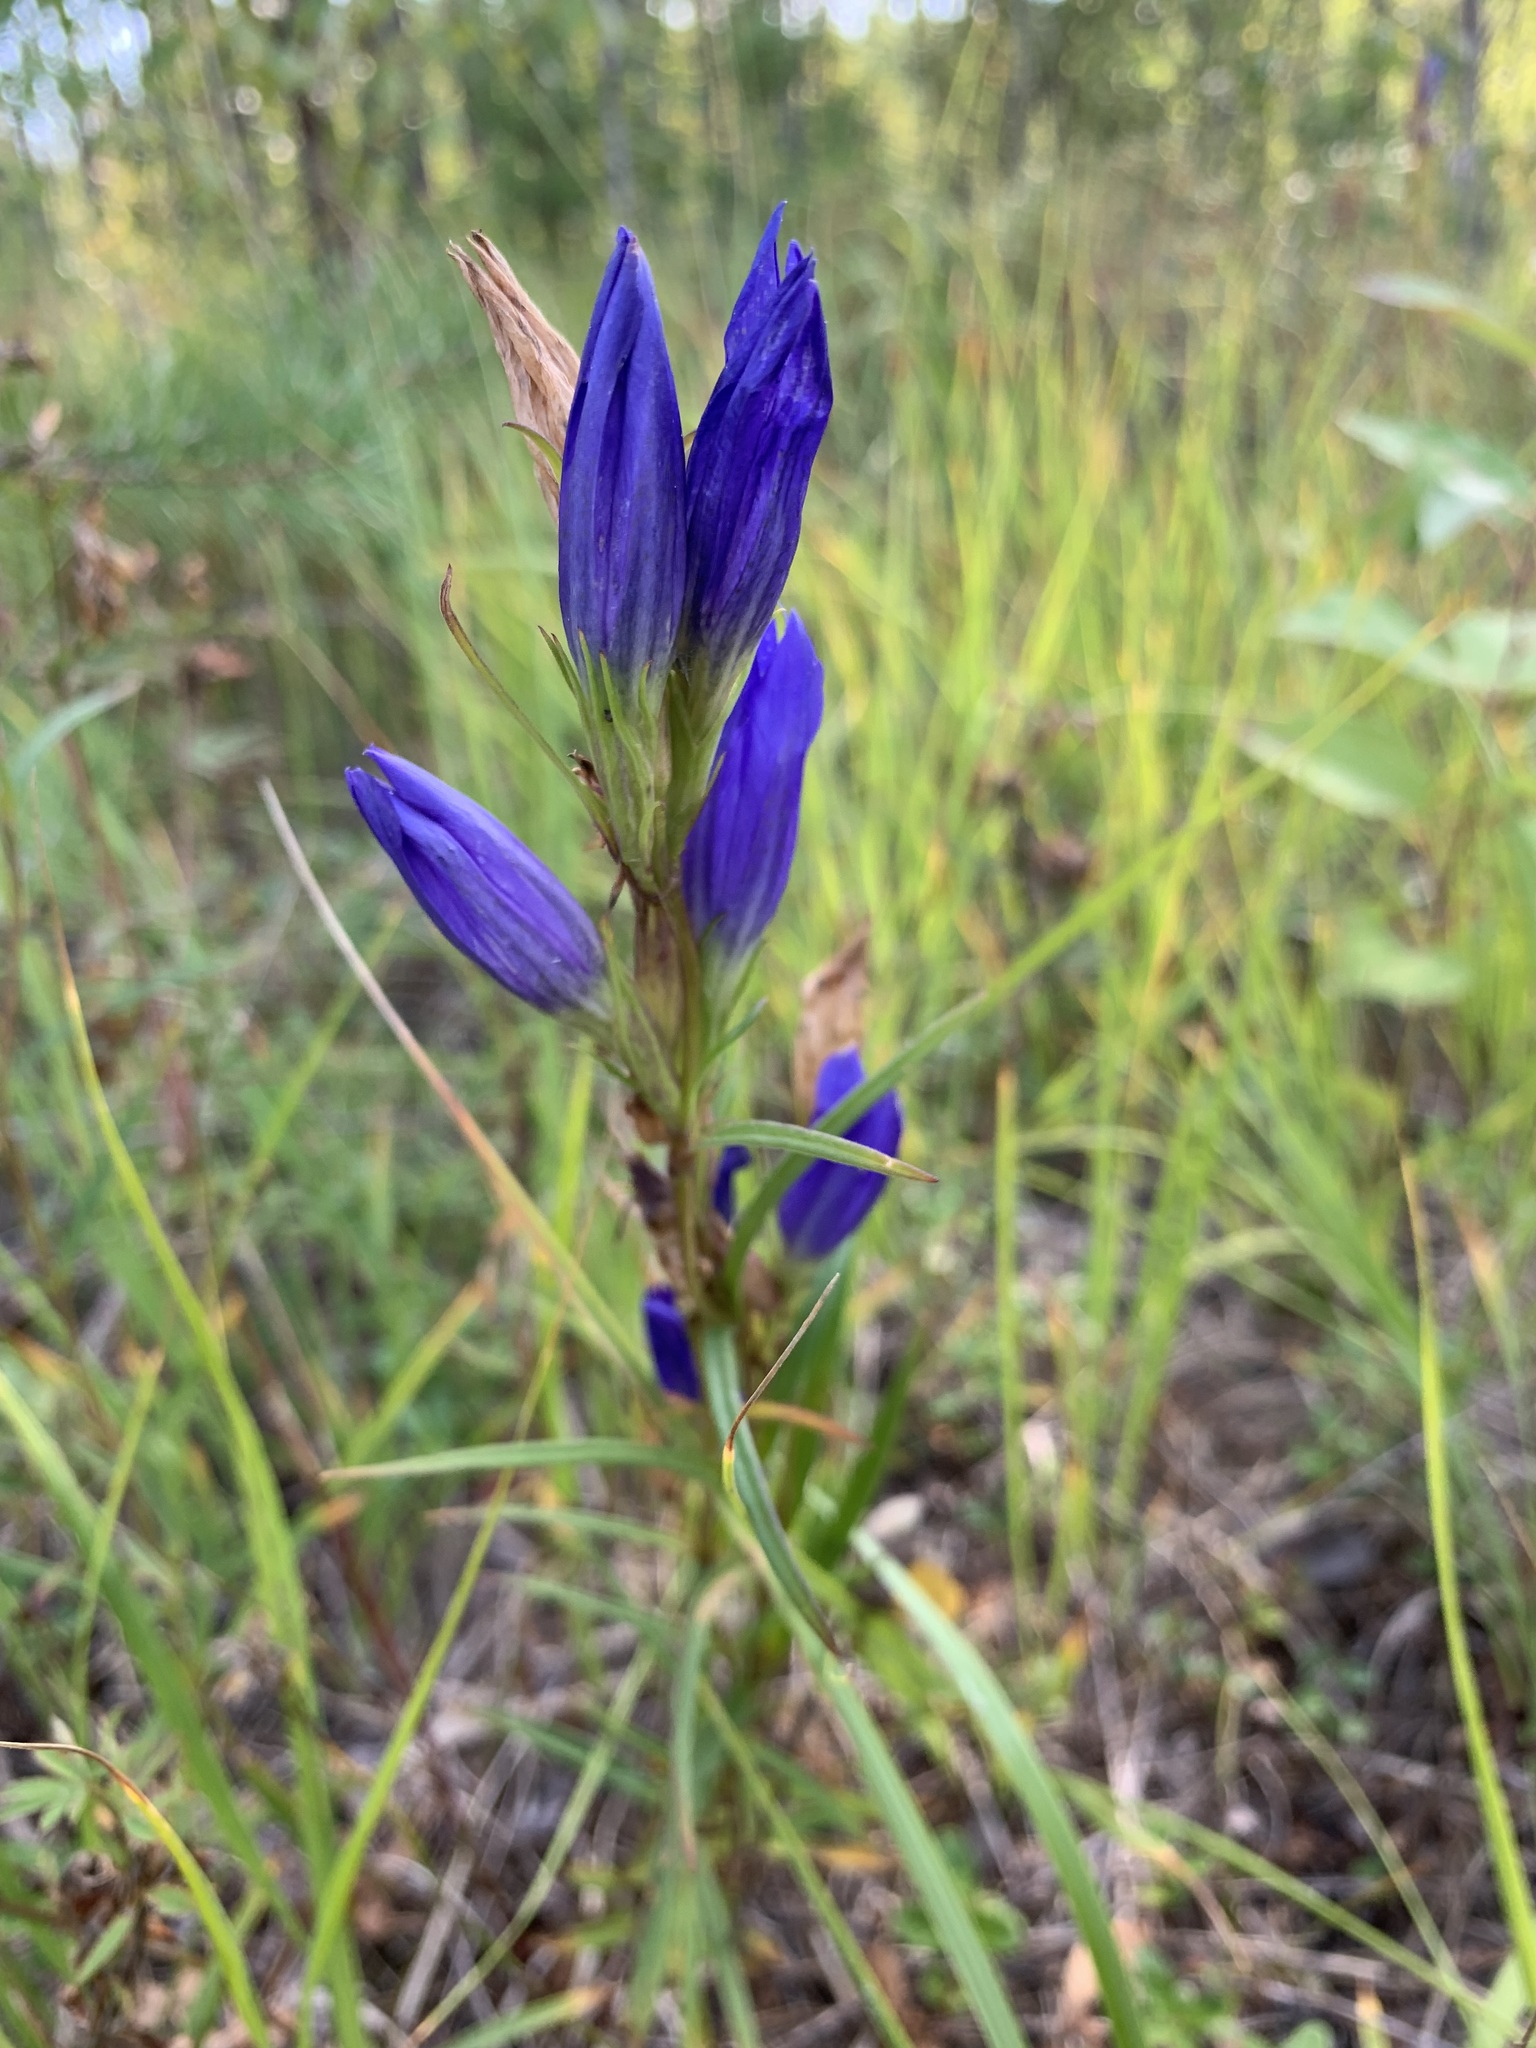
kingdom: Plantae
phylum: Tracheophyta
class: Magnoliopsida
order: Gentianales
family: Gentianaceae
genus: Gentiana
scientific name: Gentiana pneumonanthe
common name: Marsh gentian
